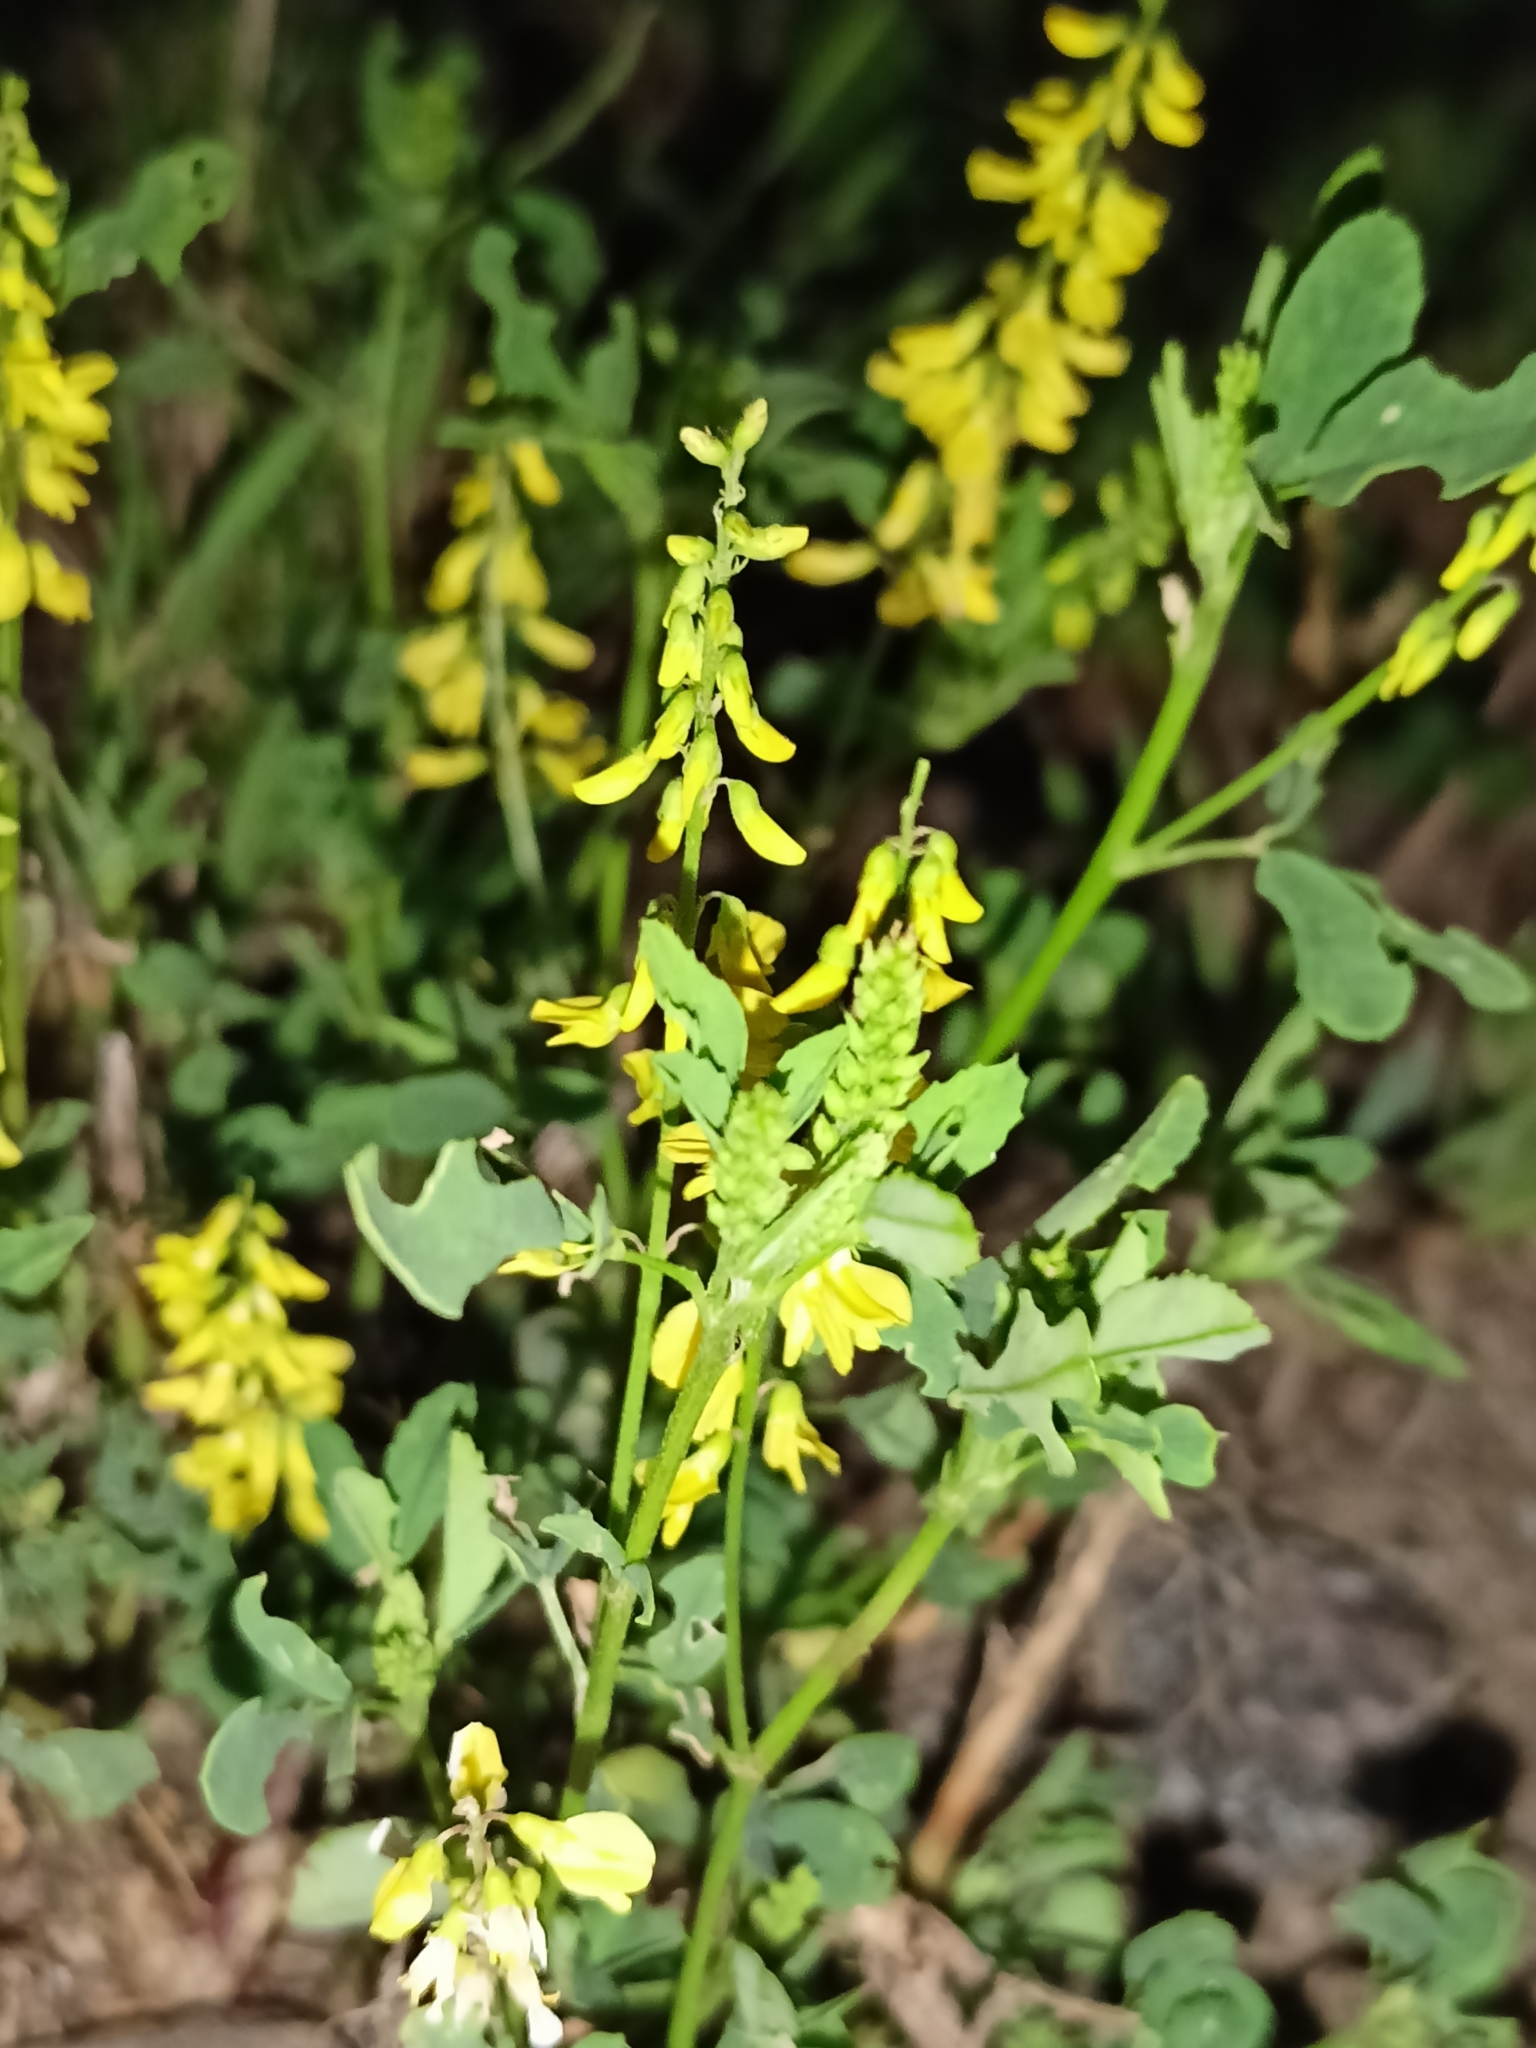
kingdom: Plantae
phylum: Tracheophyta
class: Magnoliopsida
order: Fabales
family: Fabaceae
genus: Melilotus
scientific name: Melilotus officinalis
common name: Sweetclover
